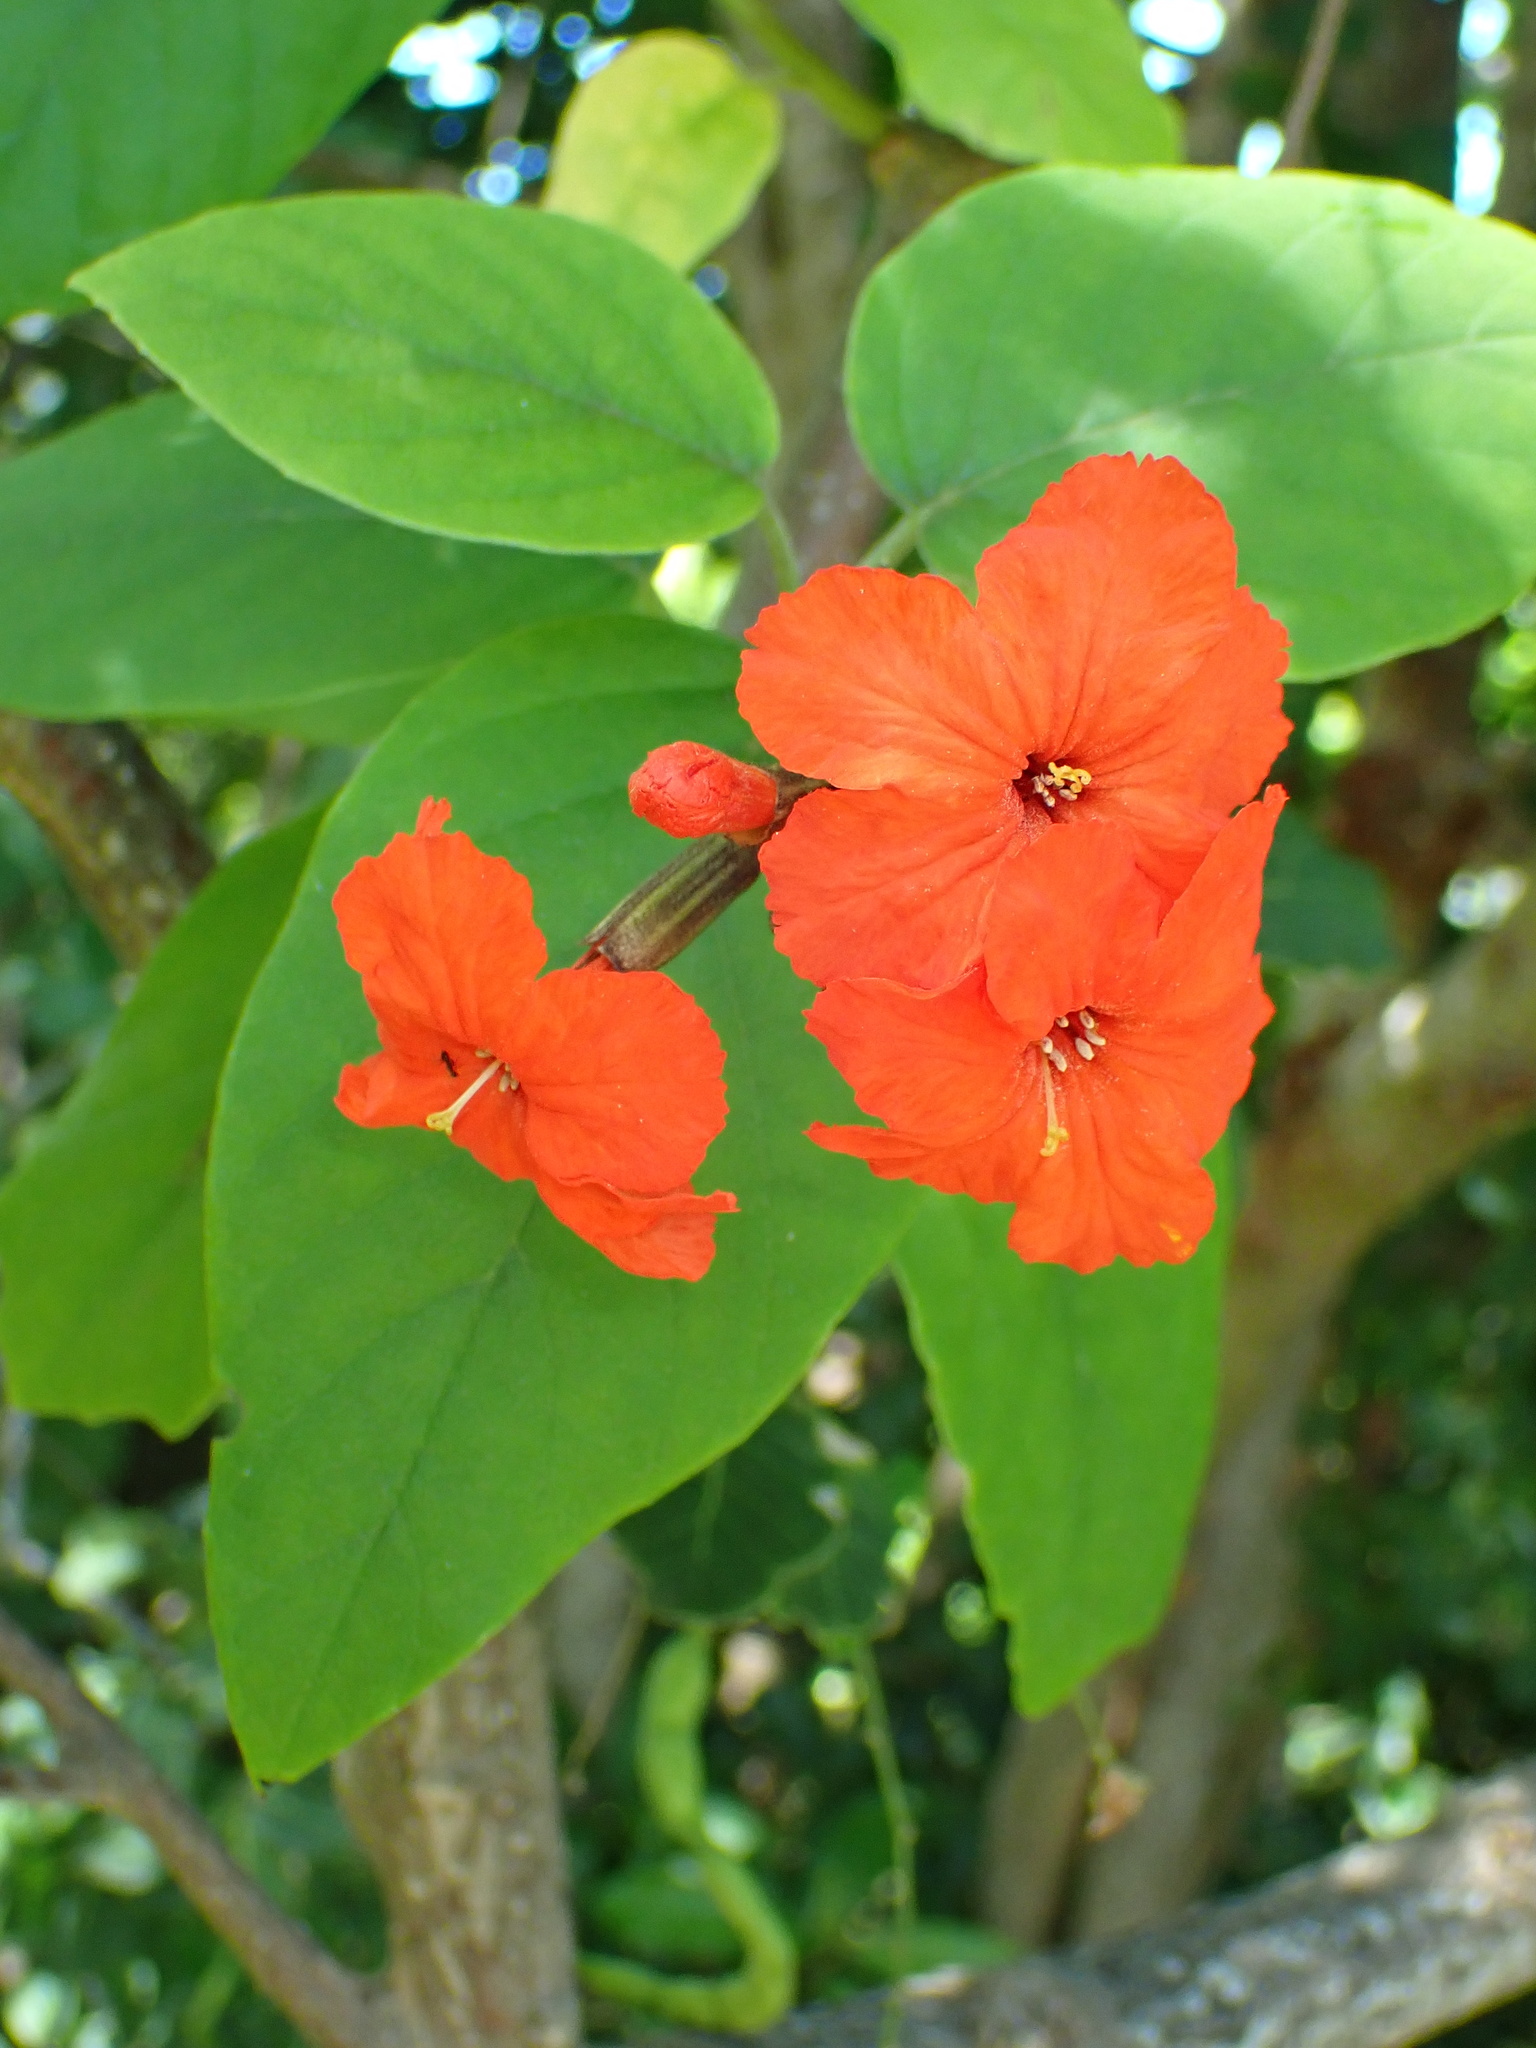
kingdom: Plantae
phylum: Tracheophyta
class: Magnoliopsida
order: Boraginales
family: Cordiaceae
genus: Cordia
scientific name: Cordia sebestena
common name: Largeleaf geigertree
